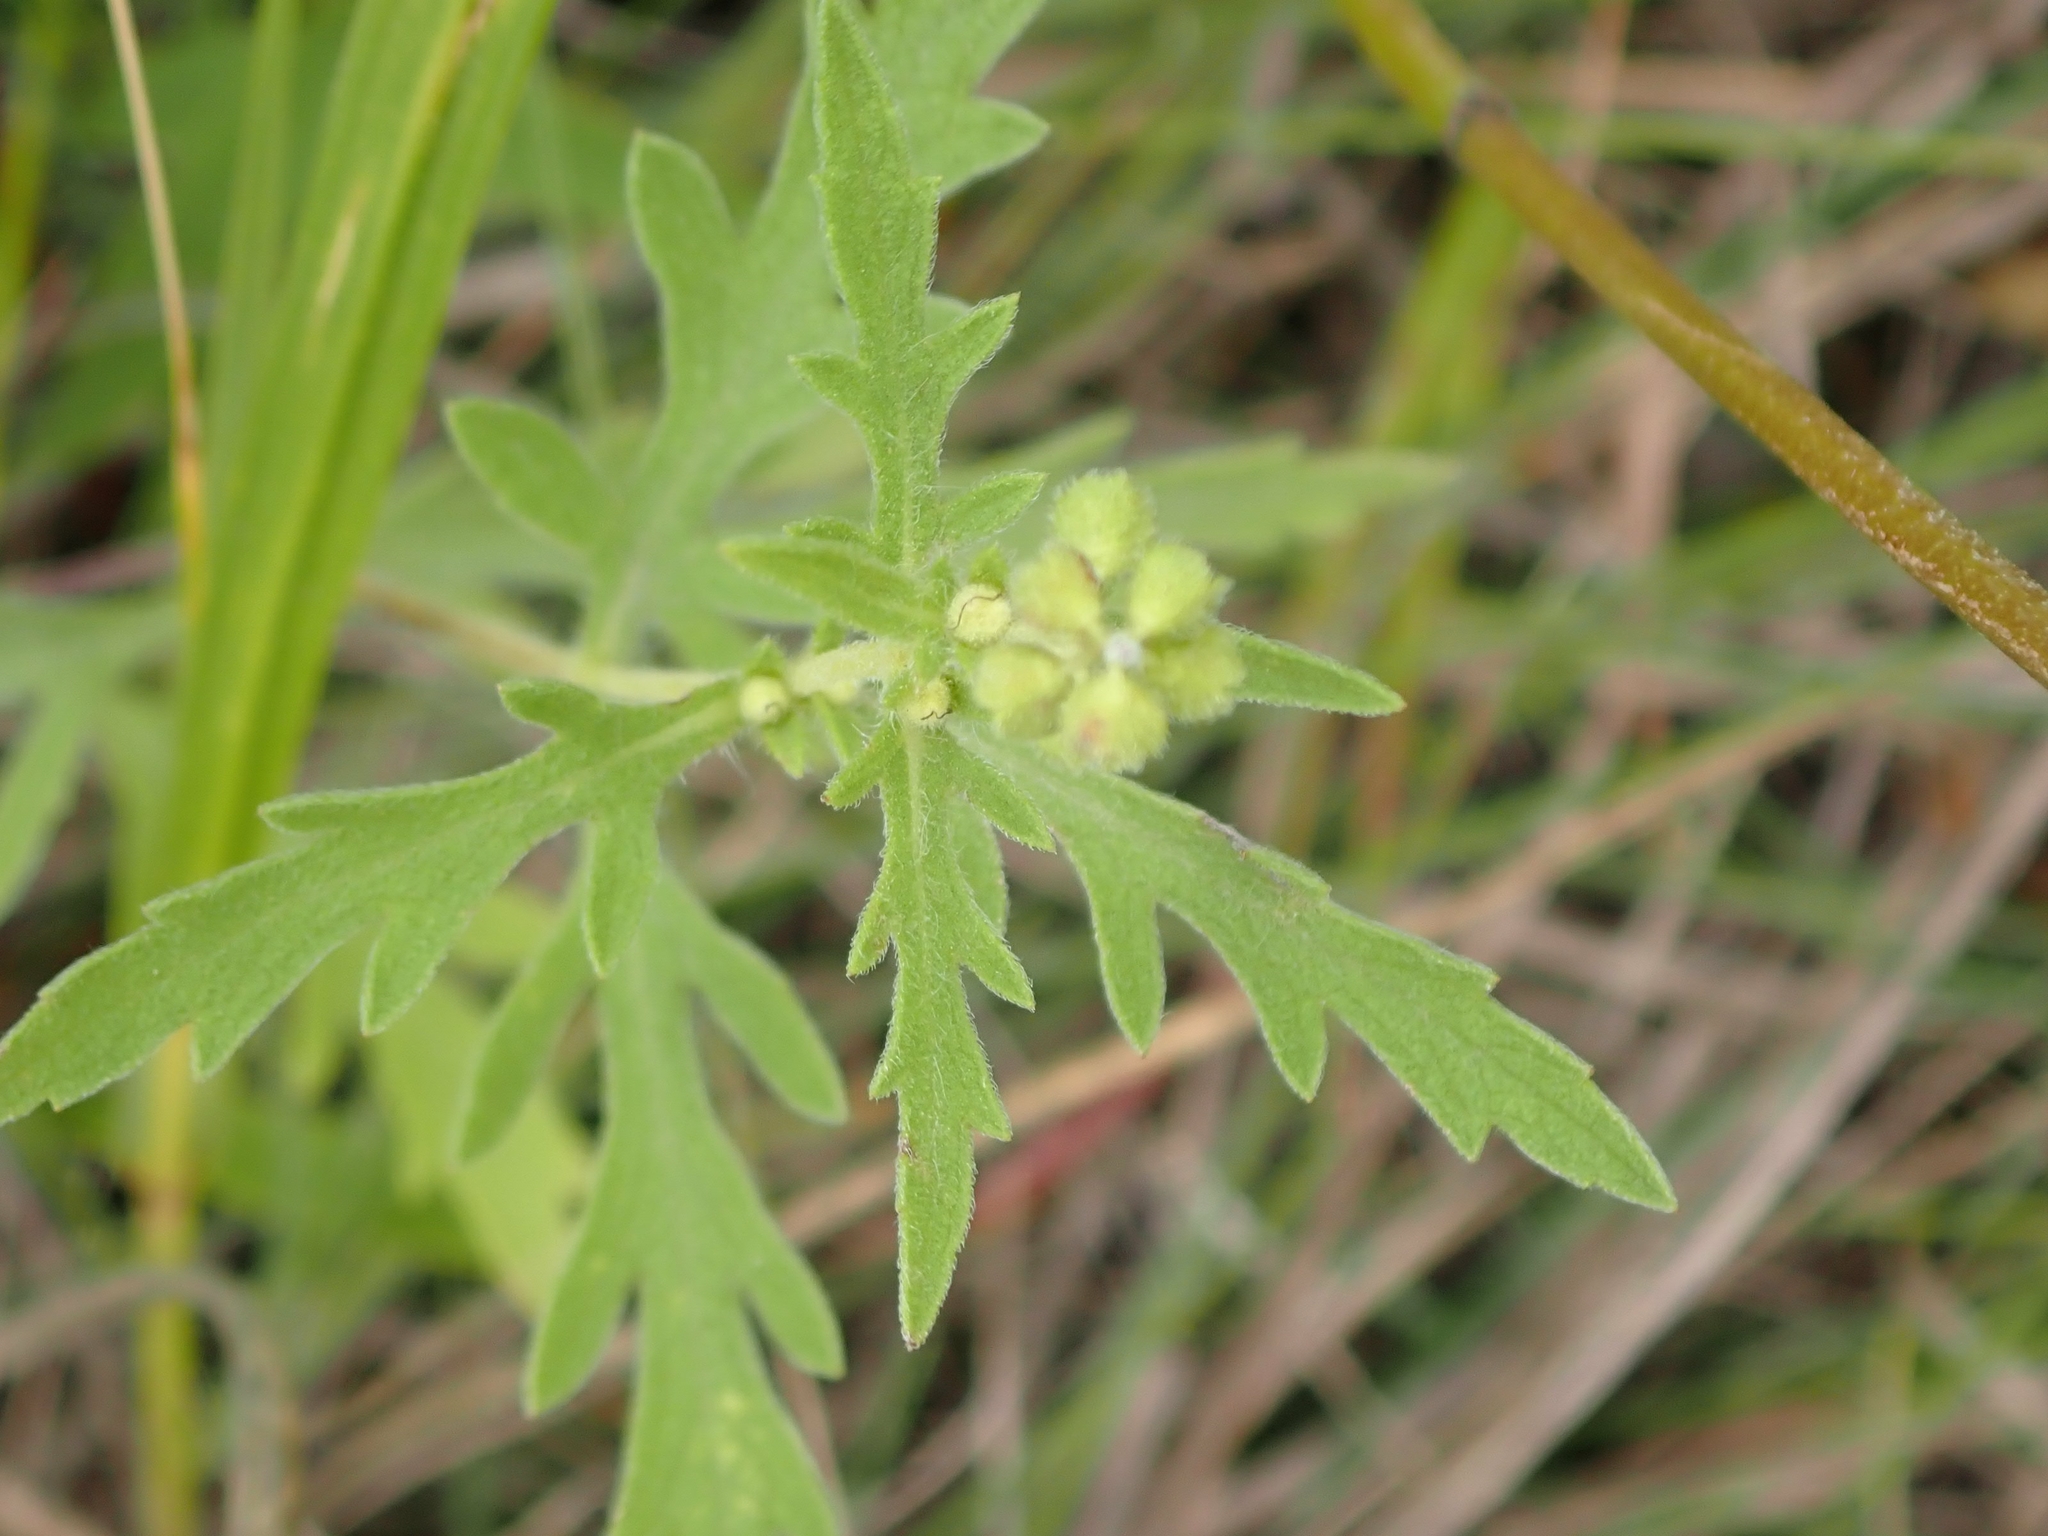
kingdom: Plantae
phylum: Tracheophyta
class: Magnoliopsida
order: Asterales
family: Asteraceae
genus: Ambrosia
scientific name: Ambrosia psilostachya
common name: Perennial ragweed
